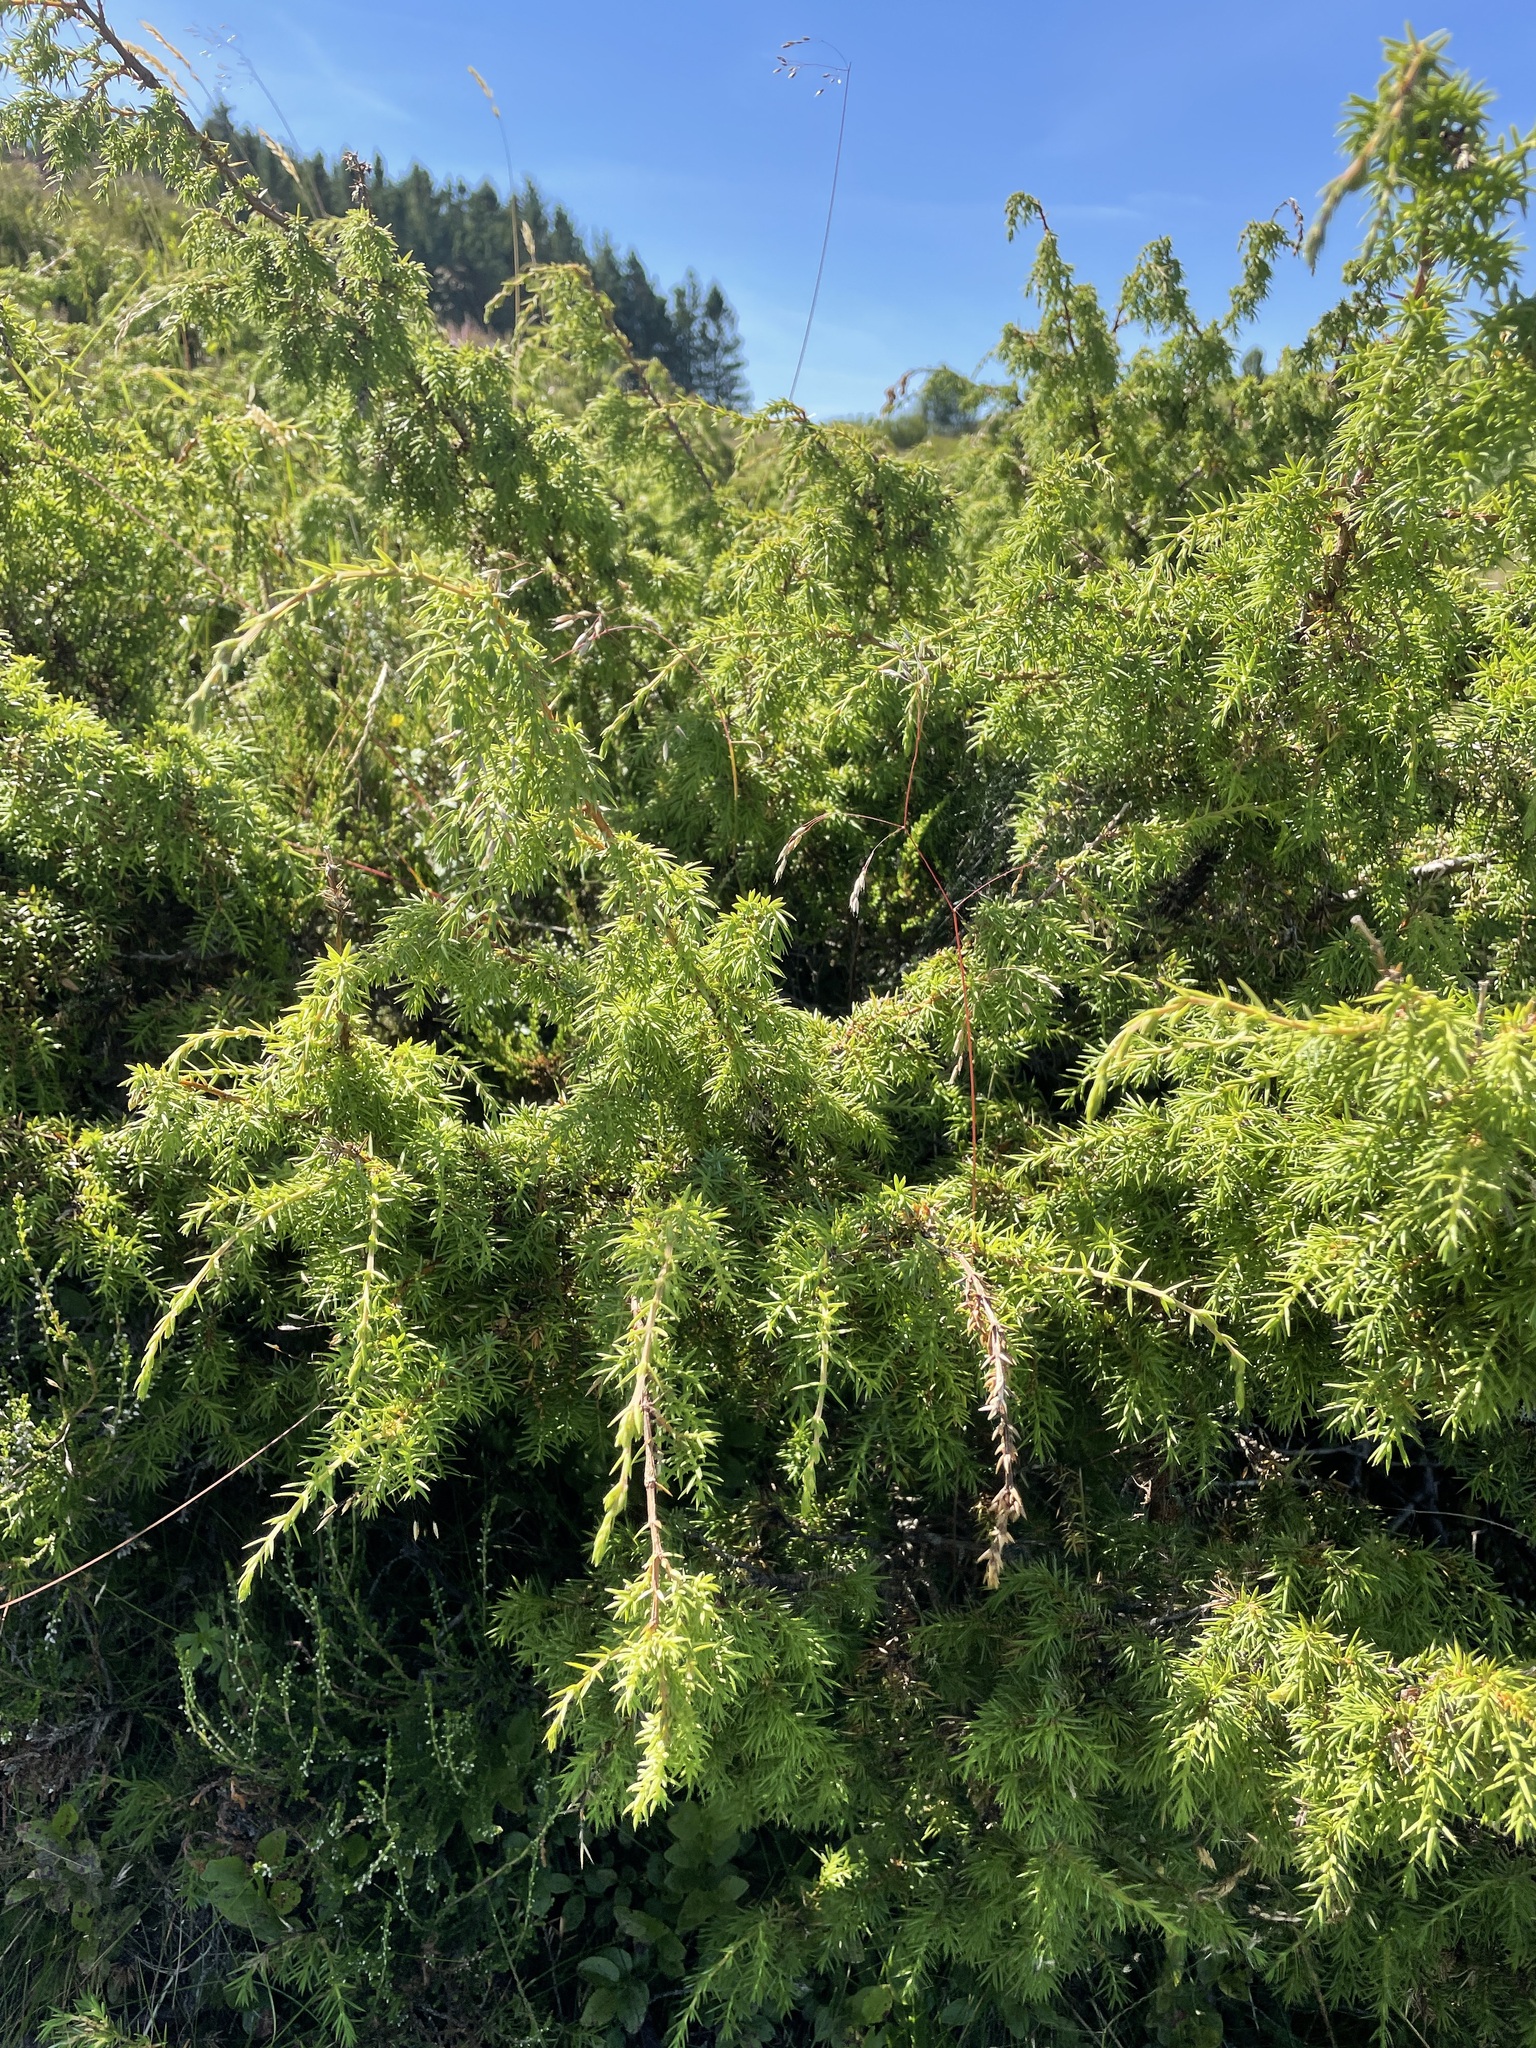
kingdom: Plantae
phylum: Tracheophyta
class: Pinopsida
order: Pinales
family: Cupressaceae
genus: Juniperus
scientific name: Juniperus communis
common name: Common juniper
